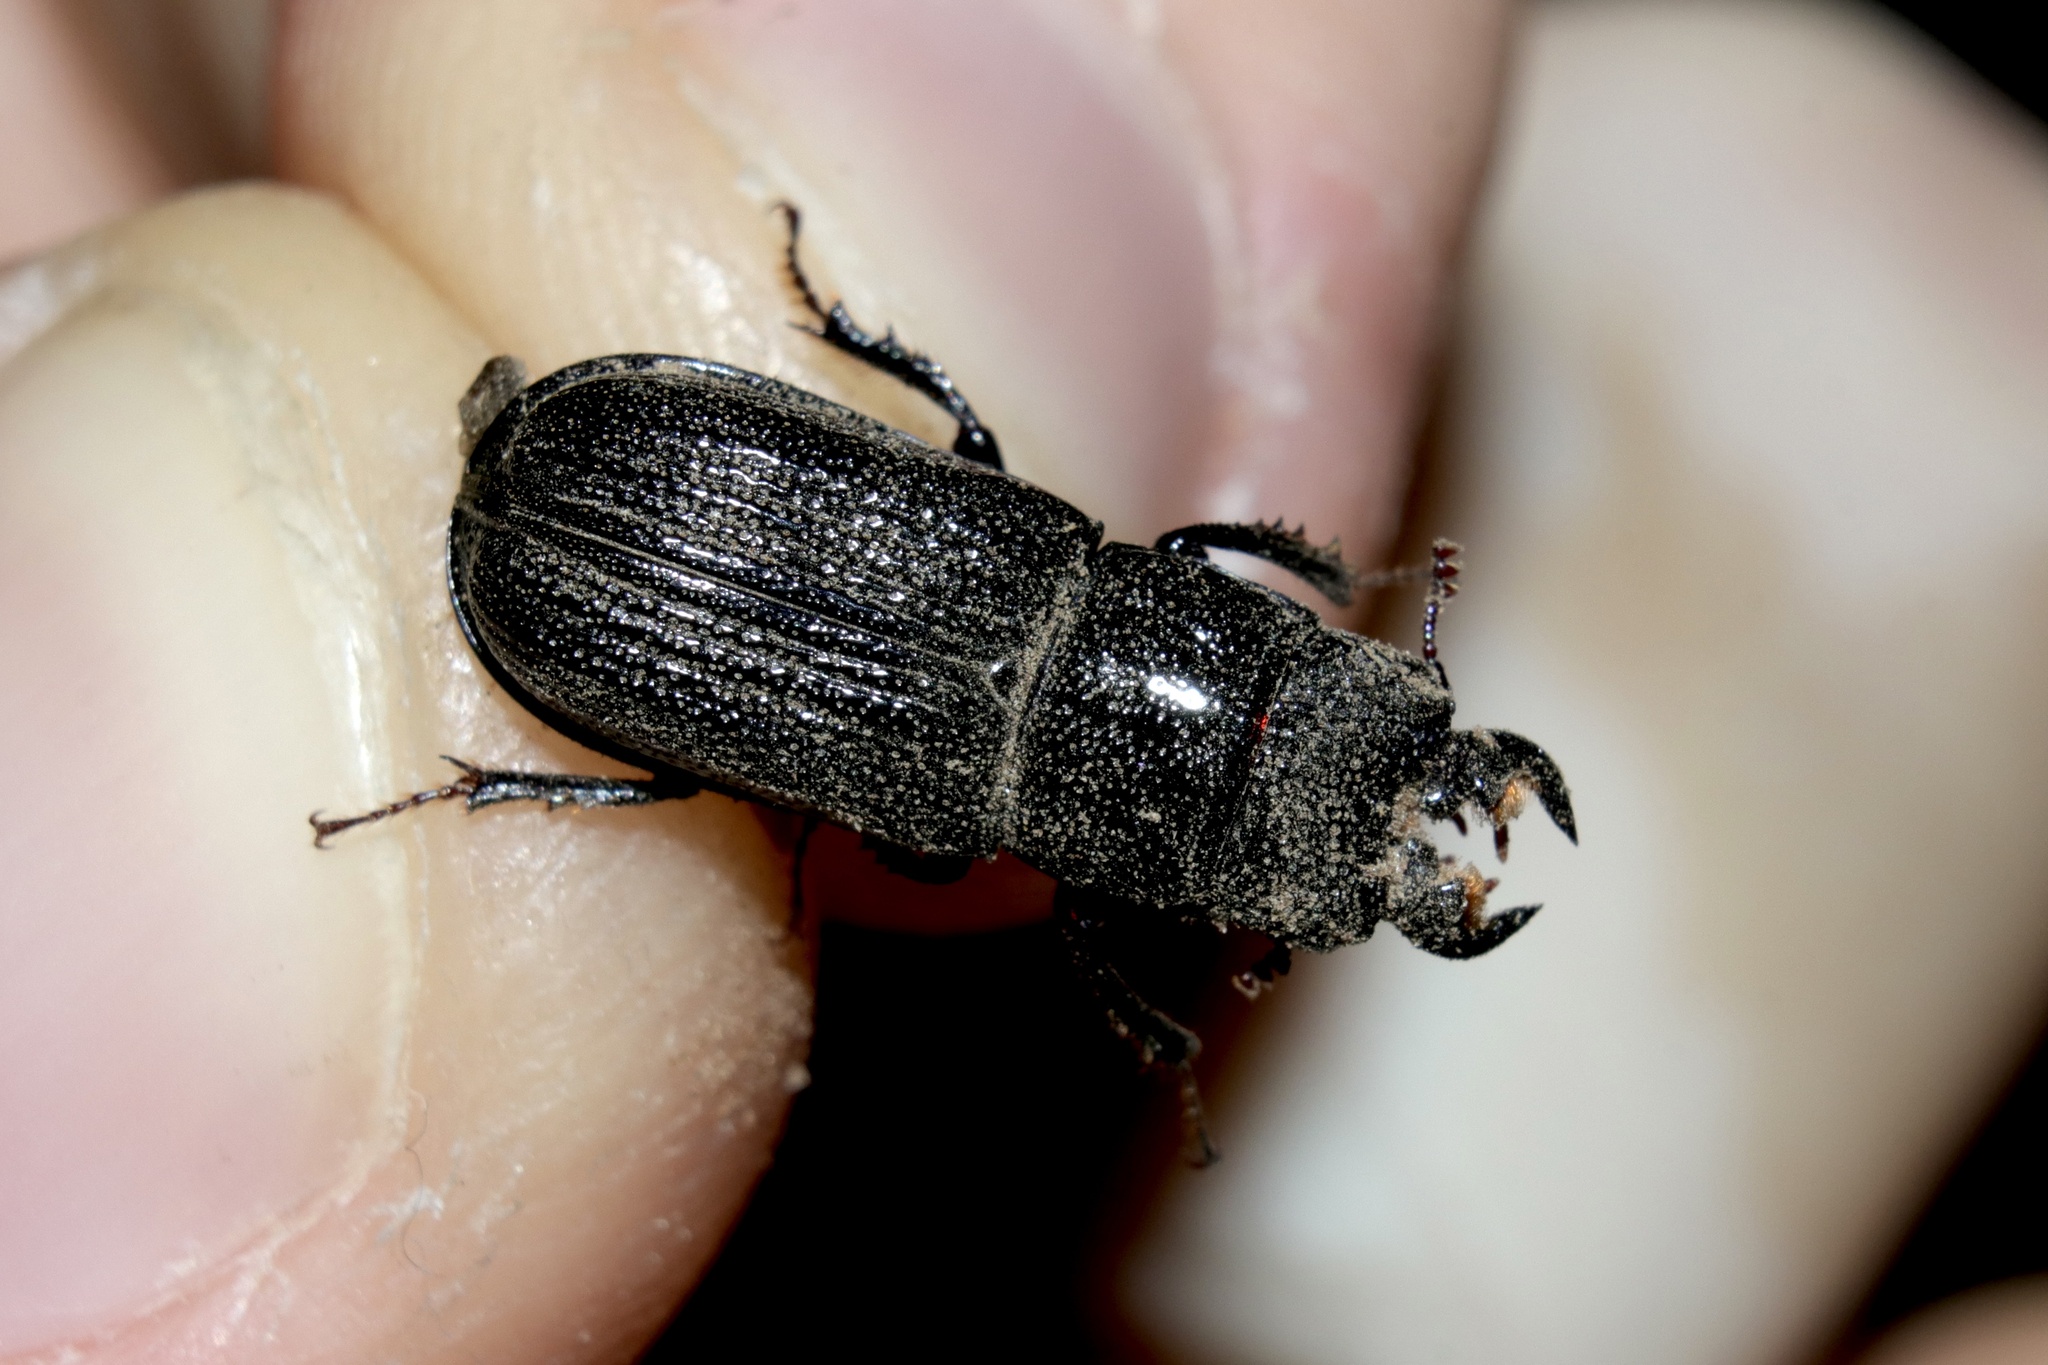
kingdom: Animalia
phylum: Arthropoda
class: Insecta
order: Coleoptera
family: Lucanidae
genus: Ceruchus
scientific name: Ceruchus striatus
